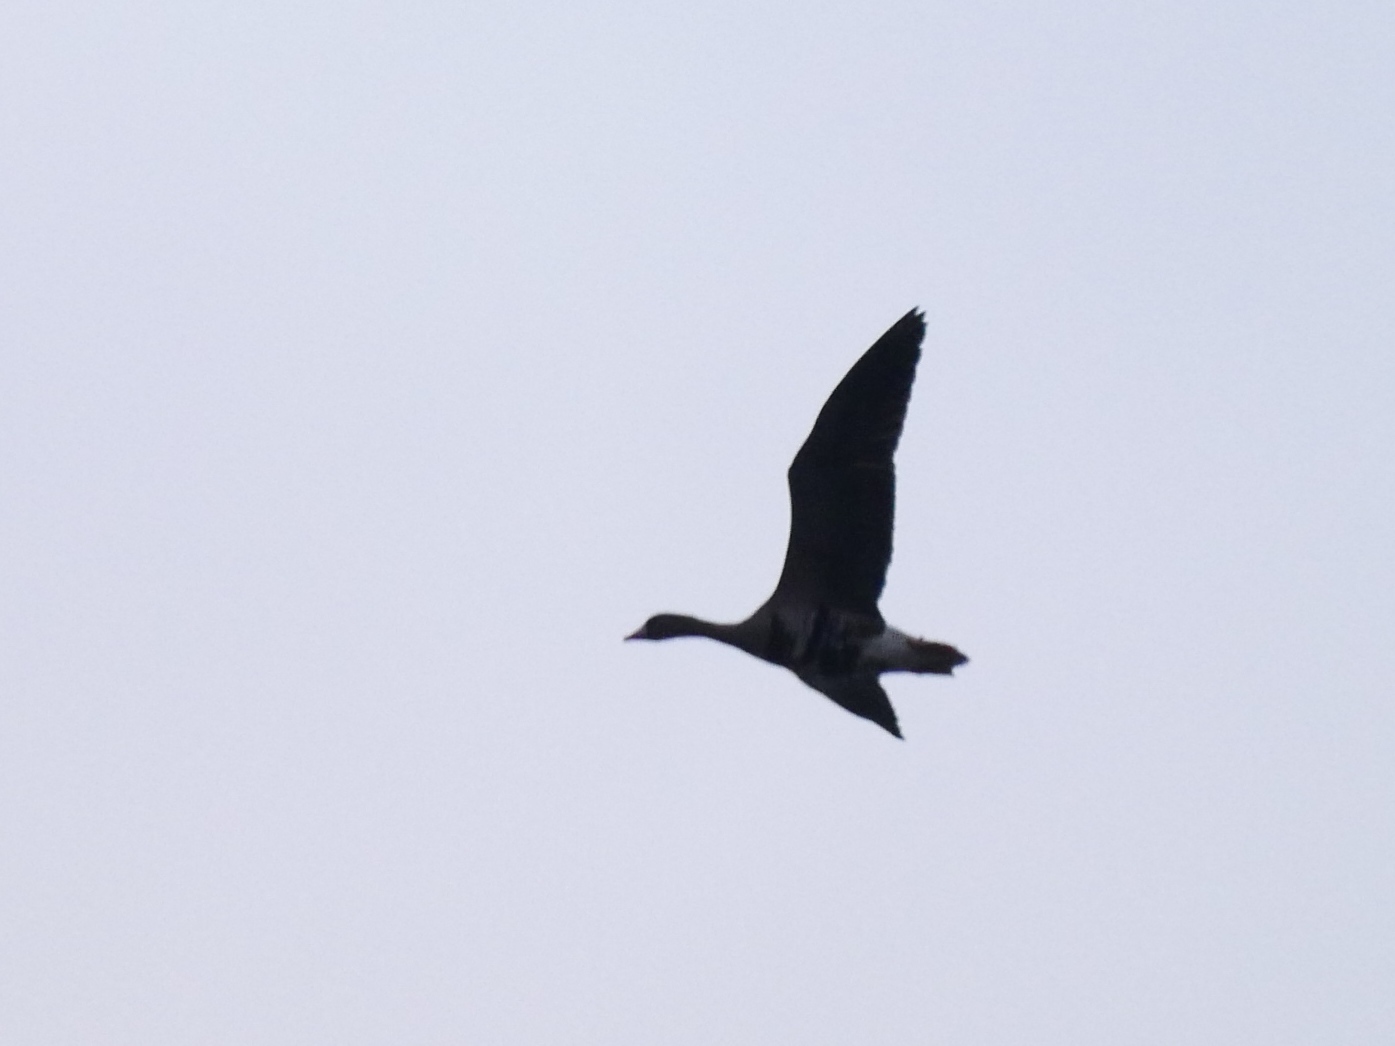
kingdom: Animalia
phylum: Chordata
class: Aves
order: Anseriformes
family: Anatidae
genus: Anser
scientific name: Anser albifrons
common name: Greater white-fronted goose
